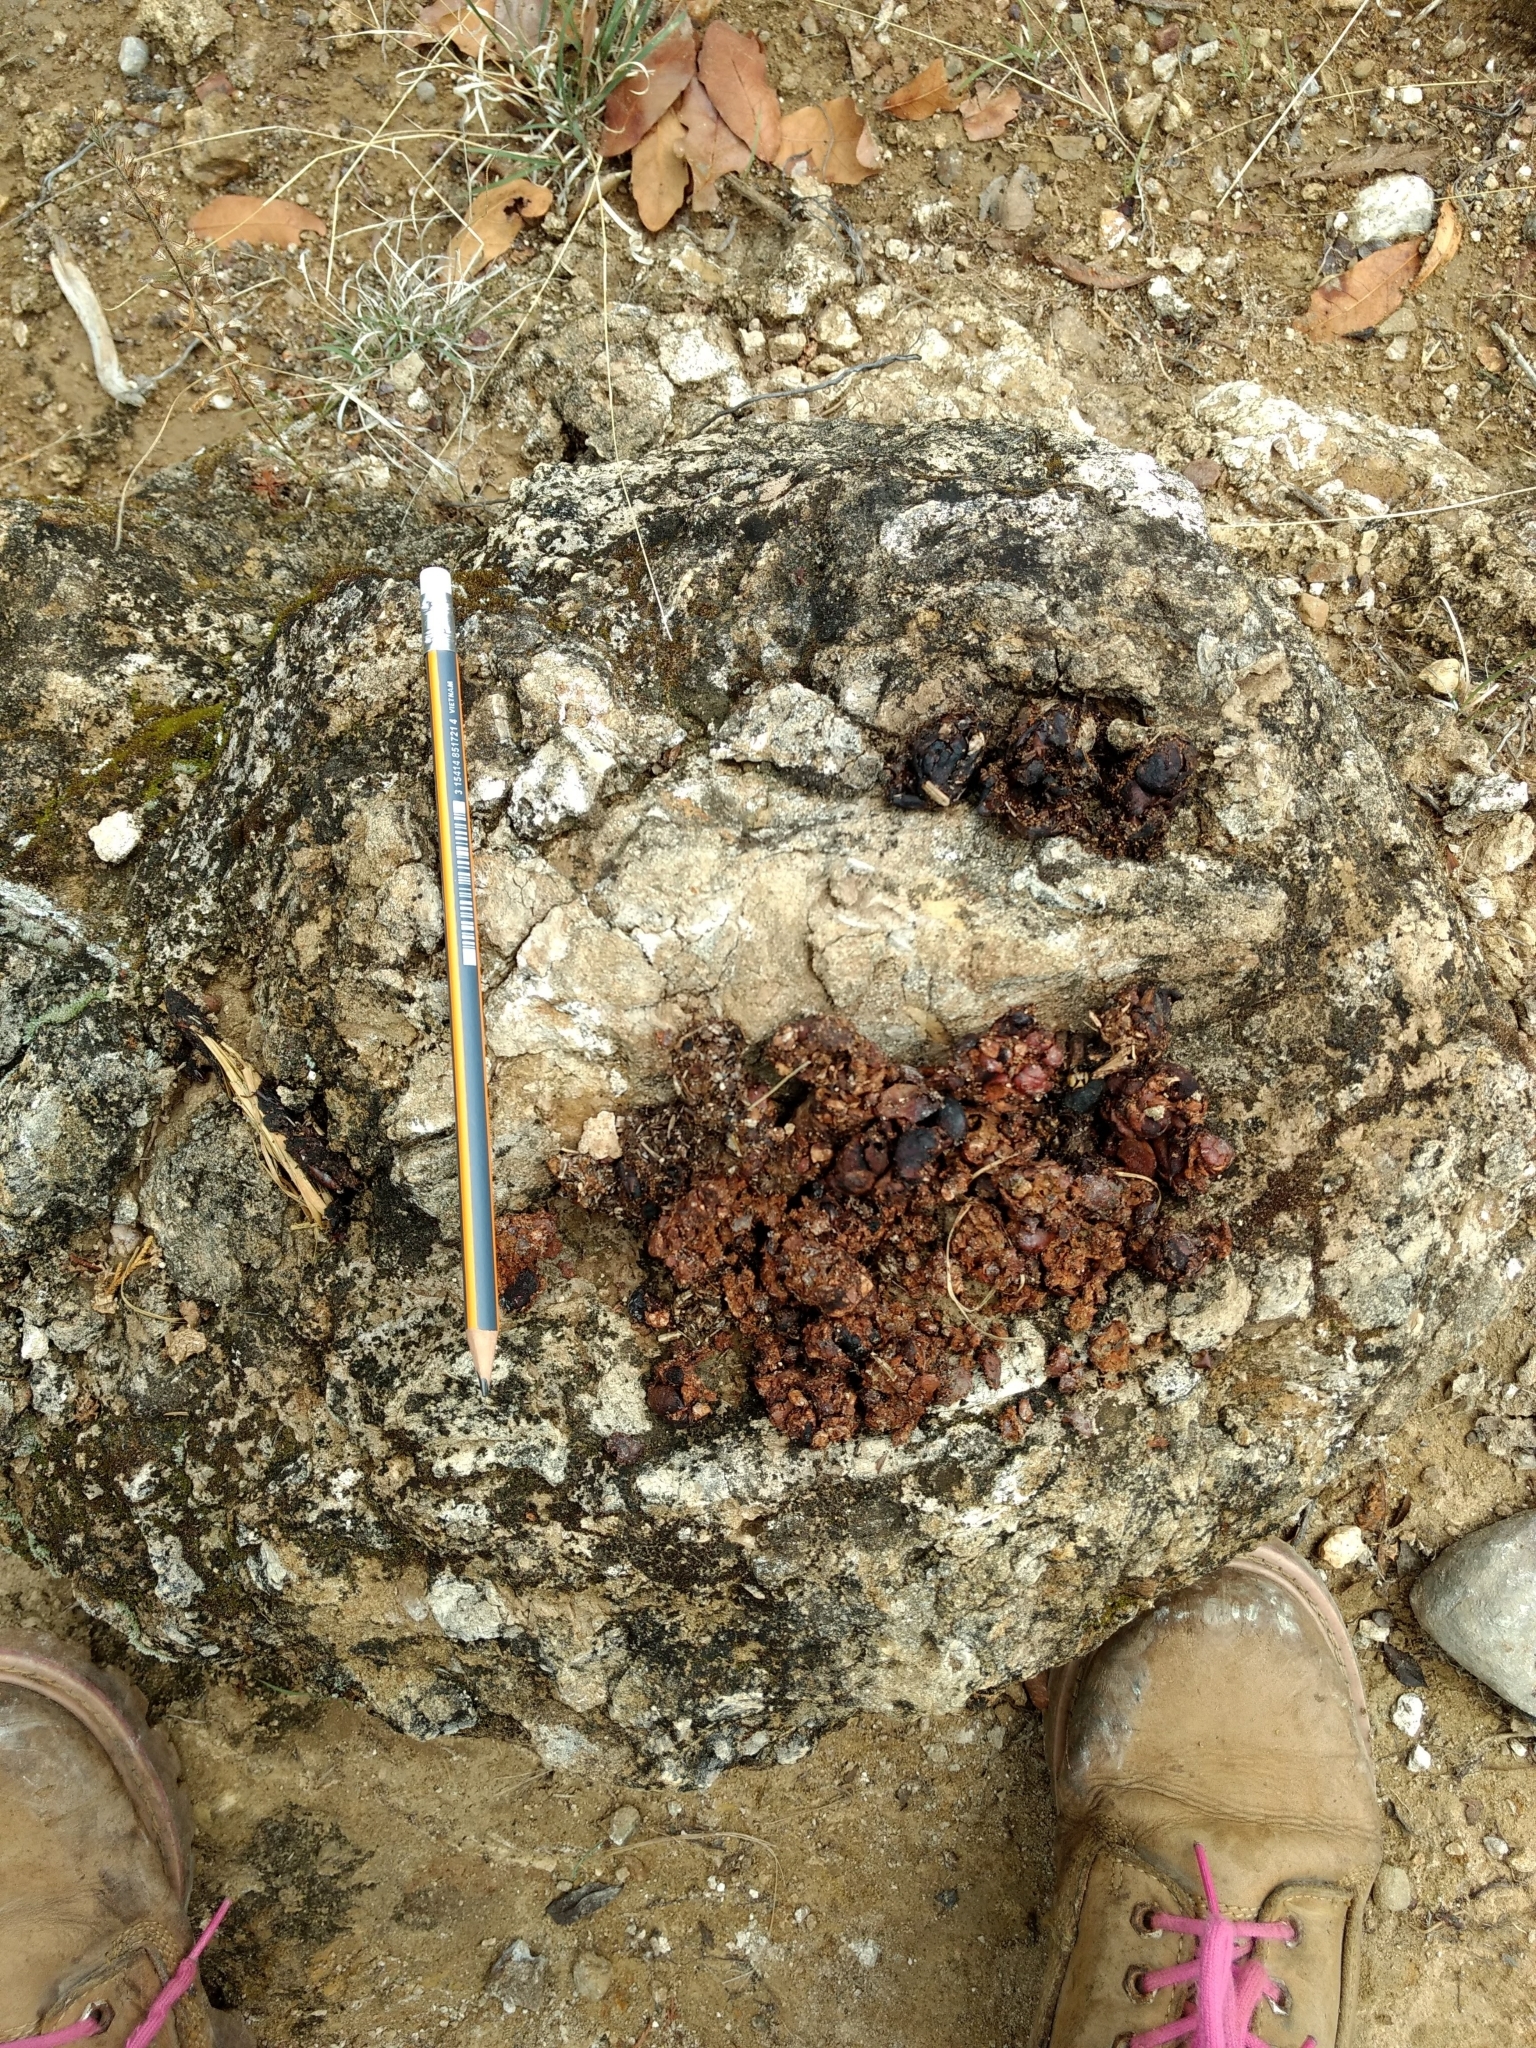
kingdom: Animalia
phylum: Chordata
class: Mammalia
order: Carnivora
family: Canidae
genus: Urocyon
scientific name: Urocyon cinereoargenteus
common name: Gray fox
